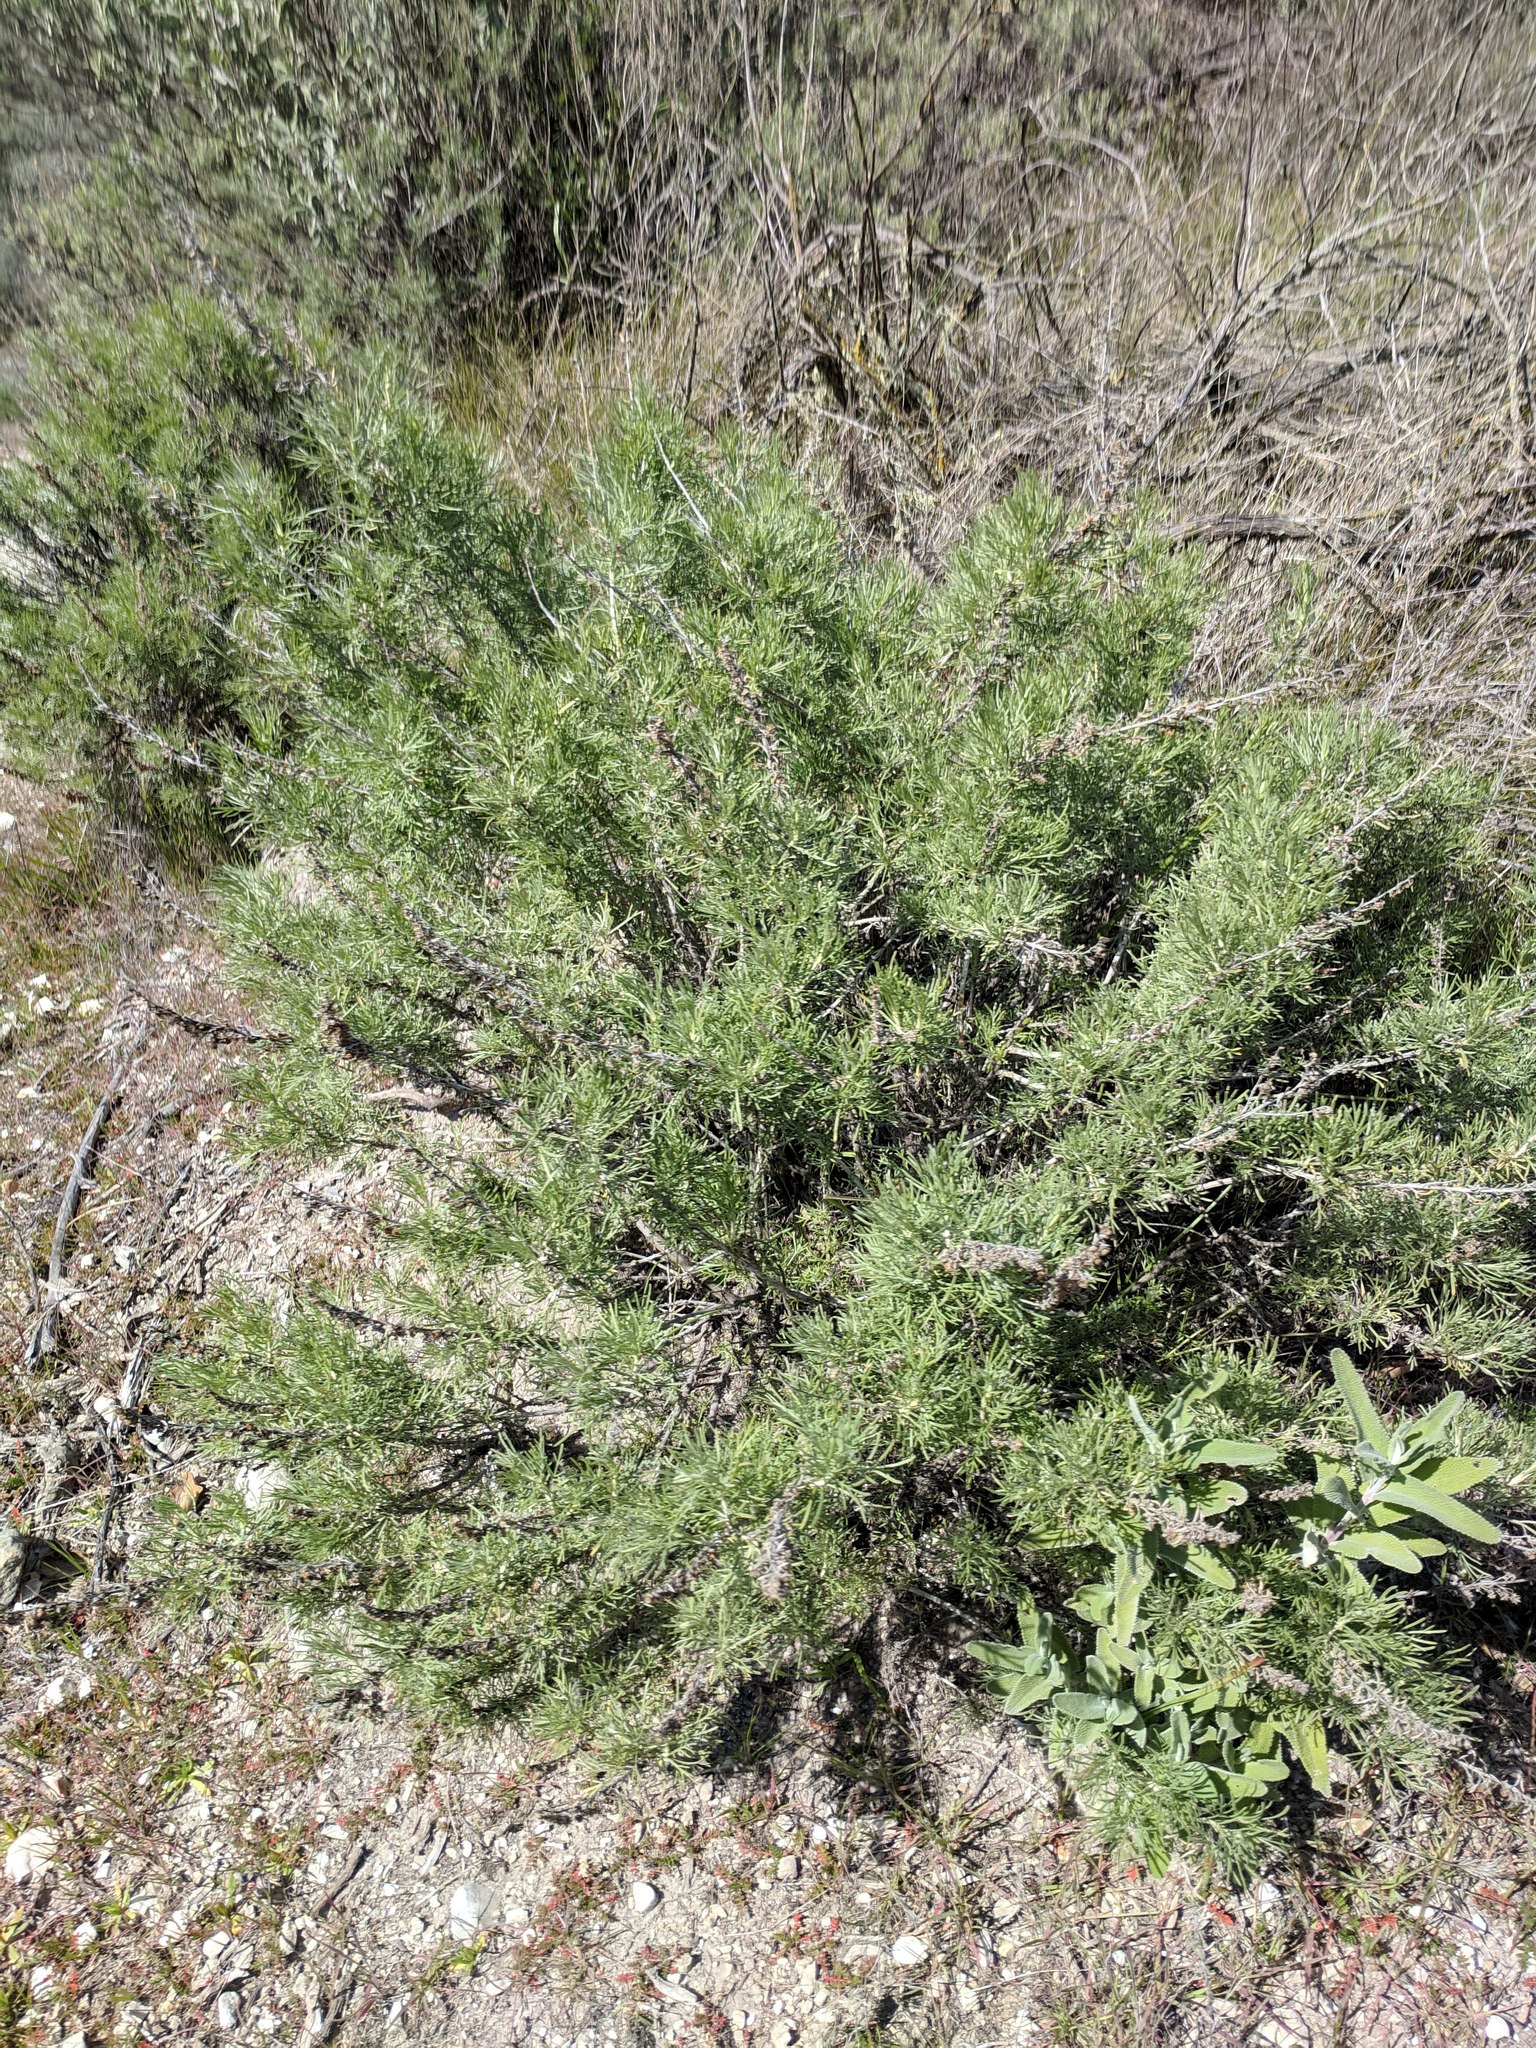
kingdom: Plantae
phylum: Tracheophyta
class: Magnoliopsida
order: Asterales
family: Asteraceae
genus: Artemisia
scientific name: Artemisia californica
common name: California sagebrush
